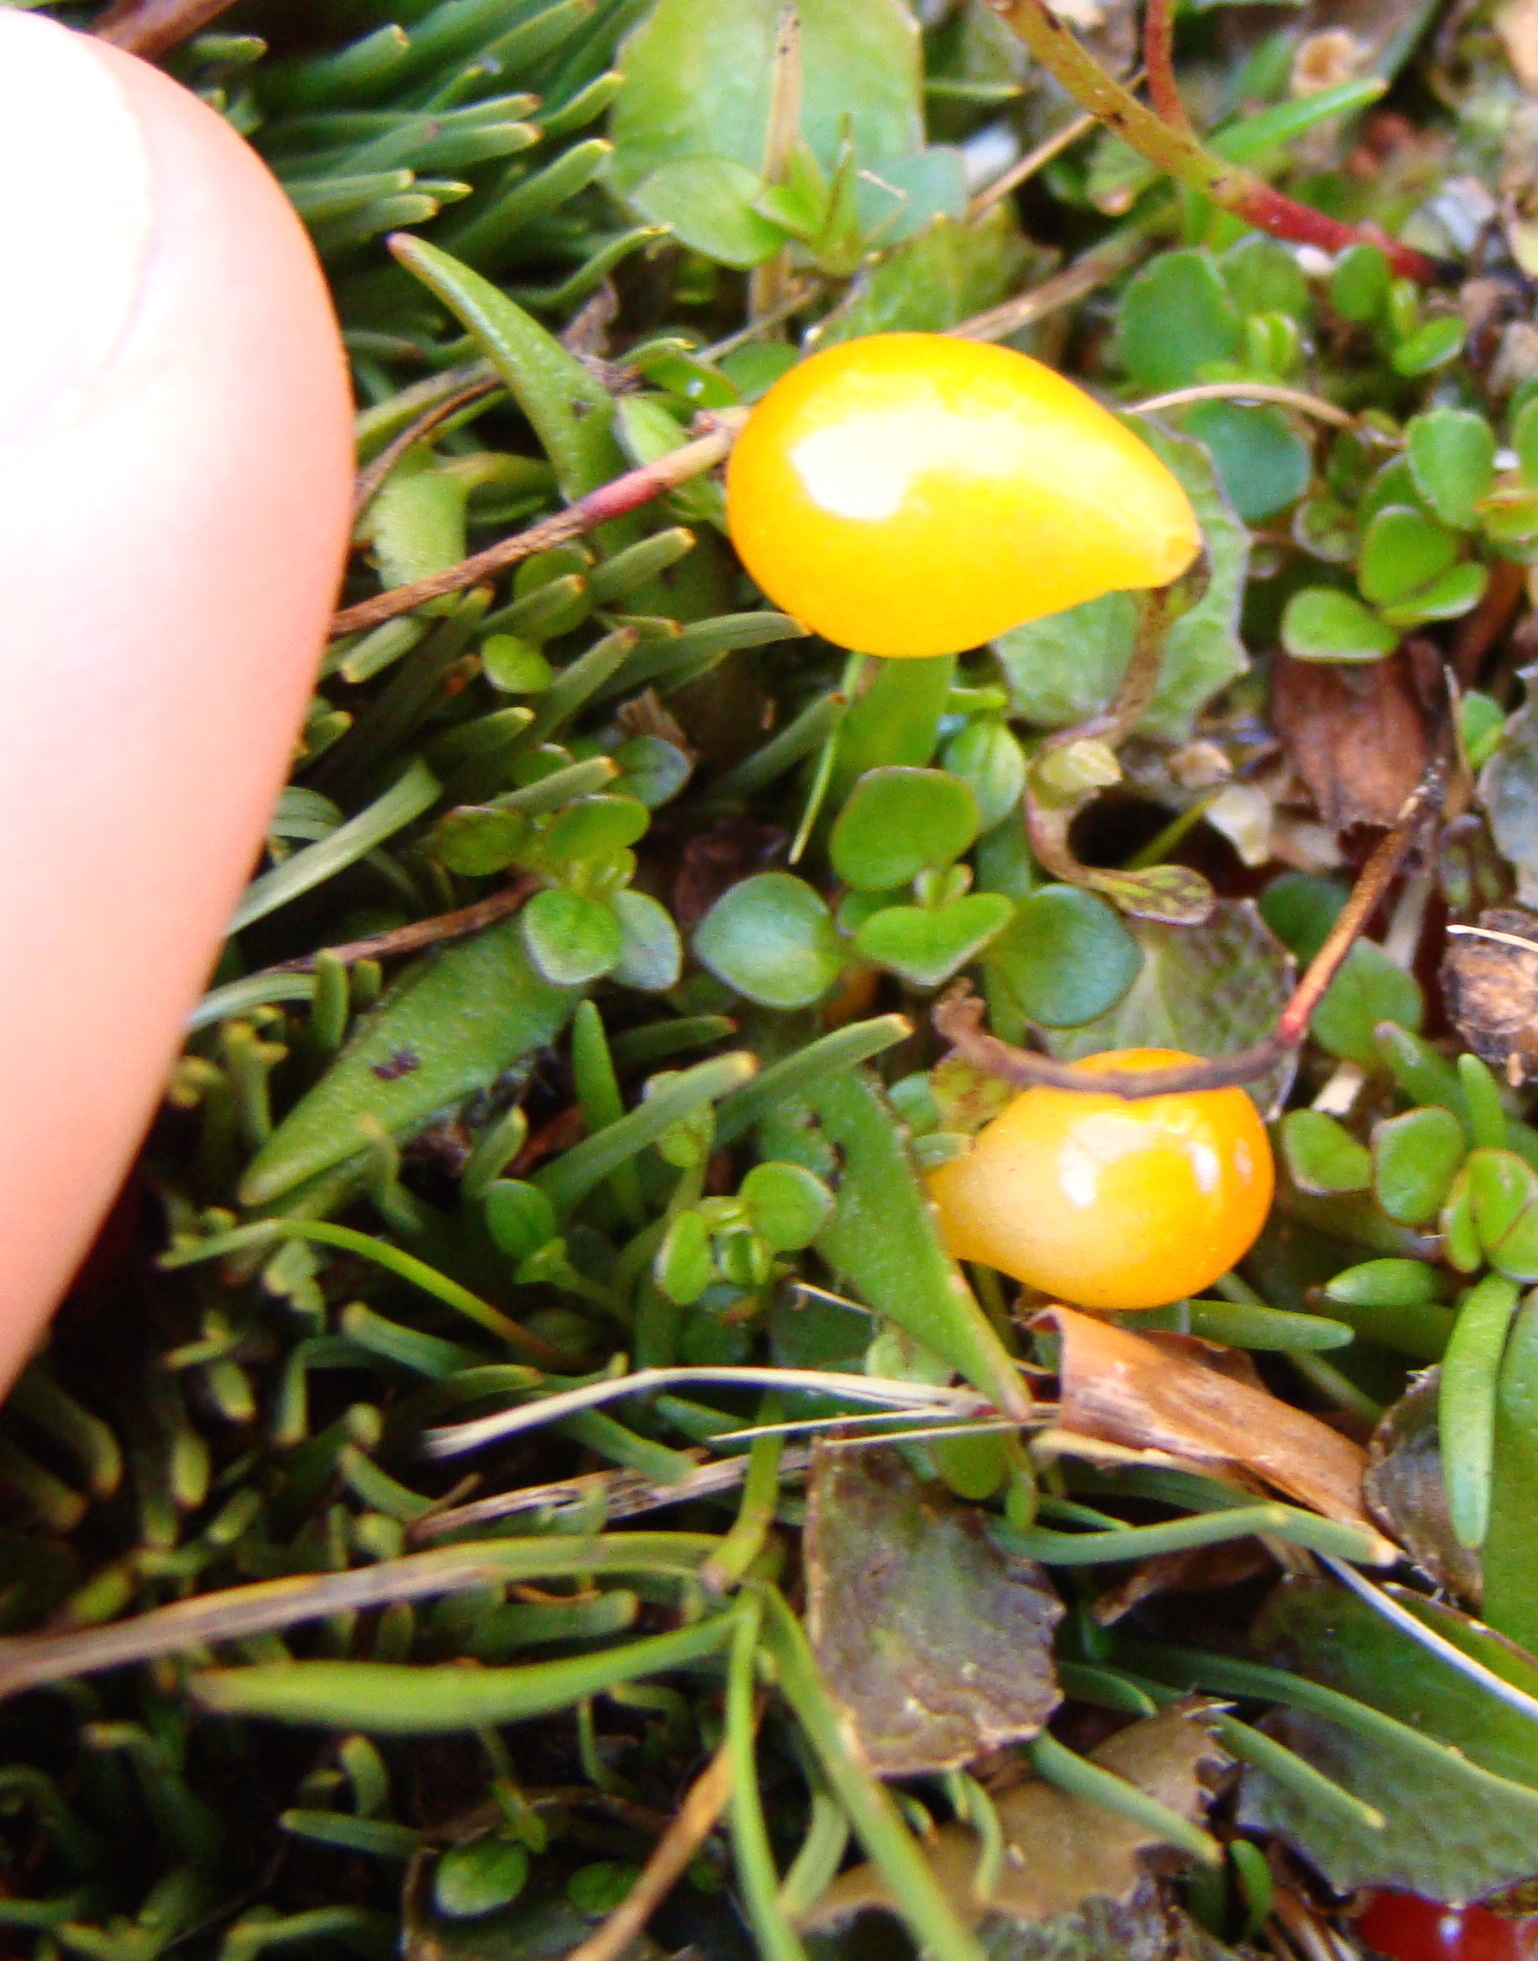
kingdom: Plantae
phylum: Tracheophyta
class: Magnoliopsida
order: Gentianales
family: Rubiaceae
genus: Nertera
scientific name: Nertera balfouriana
